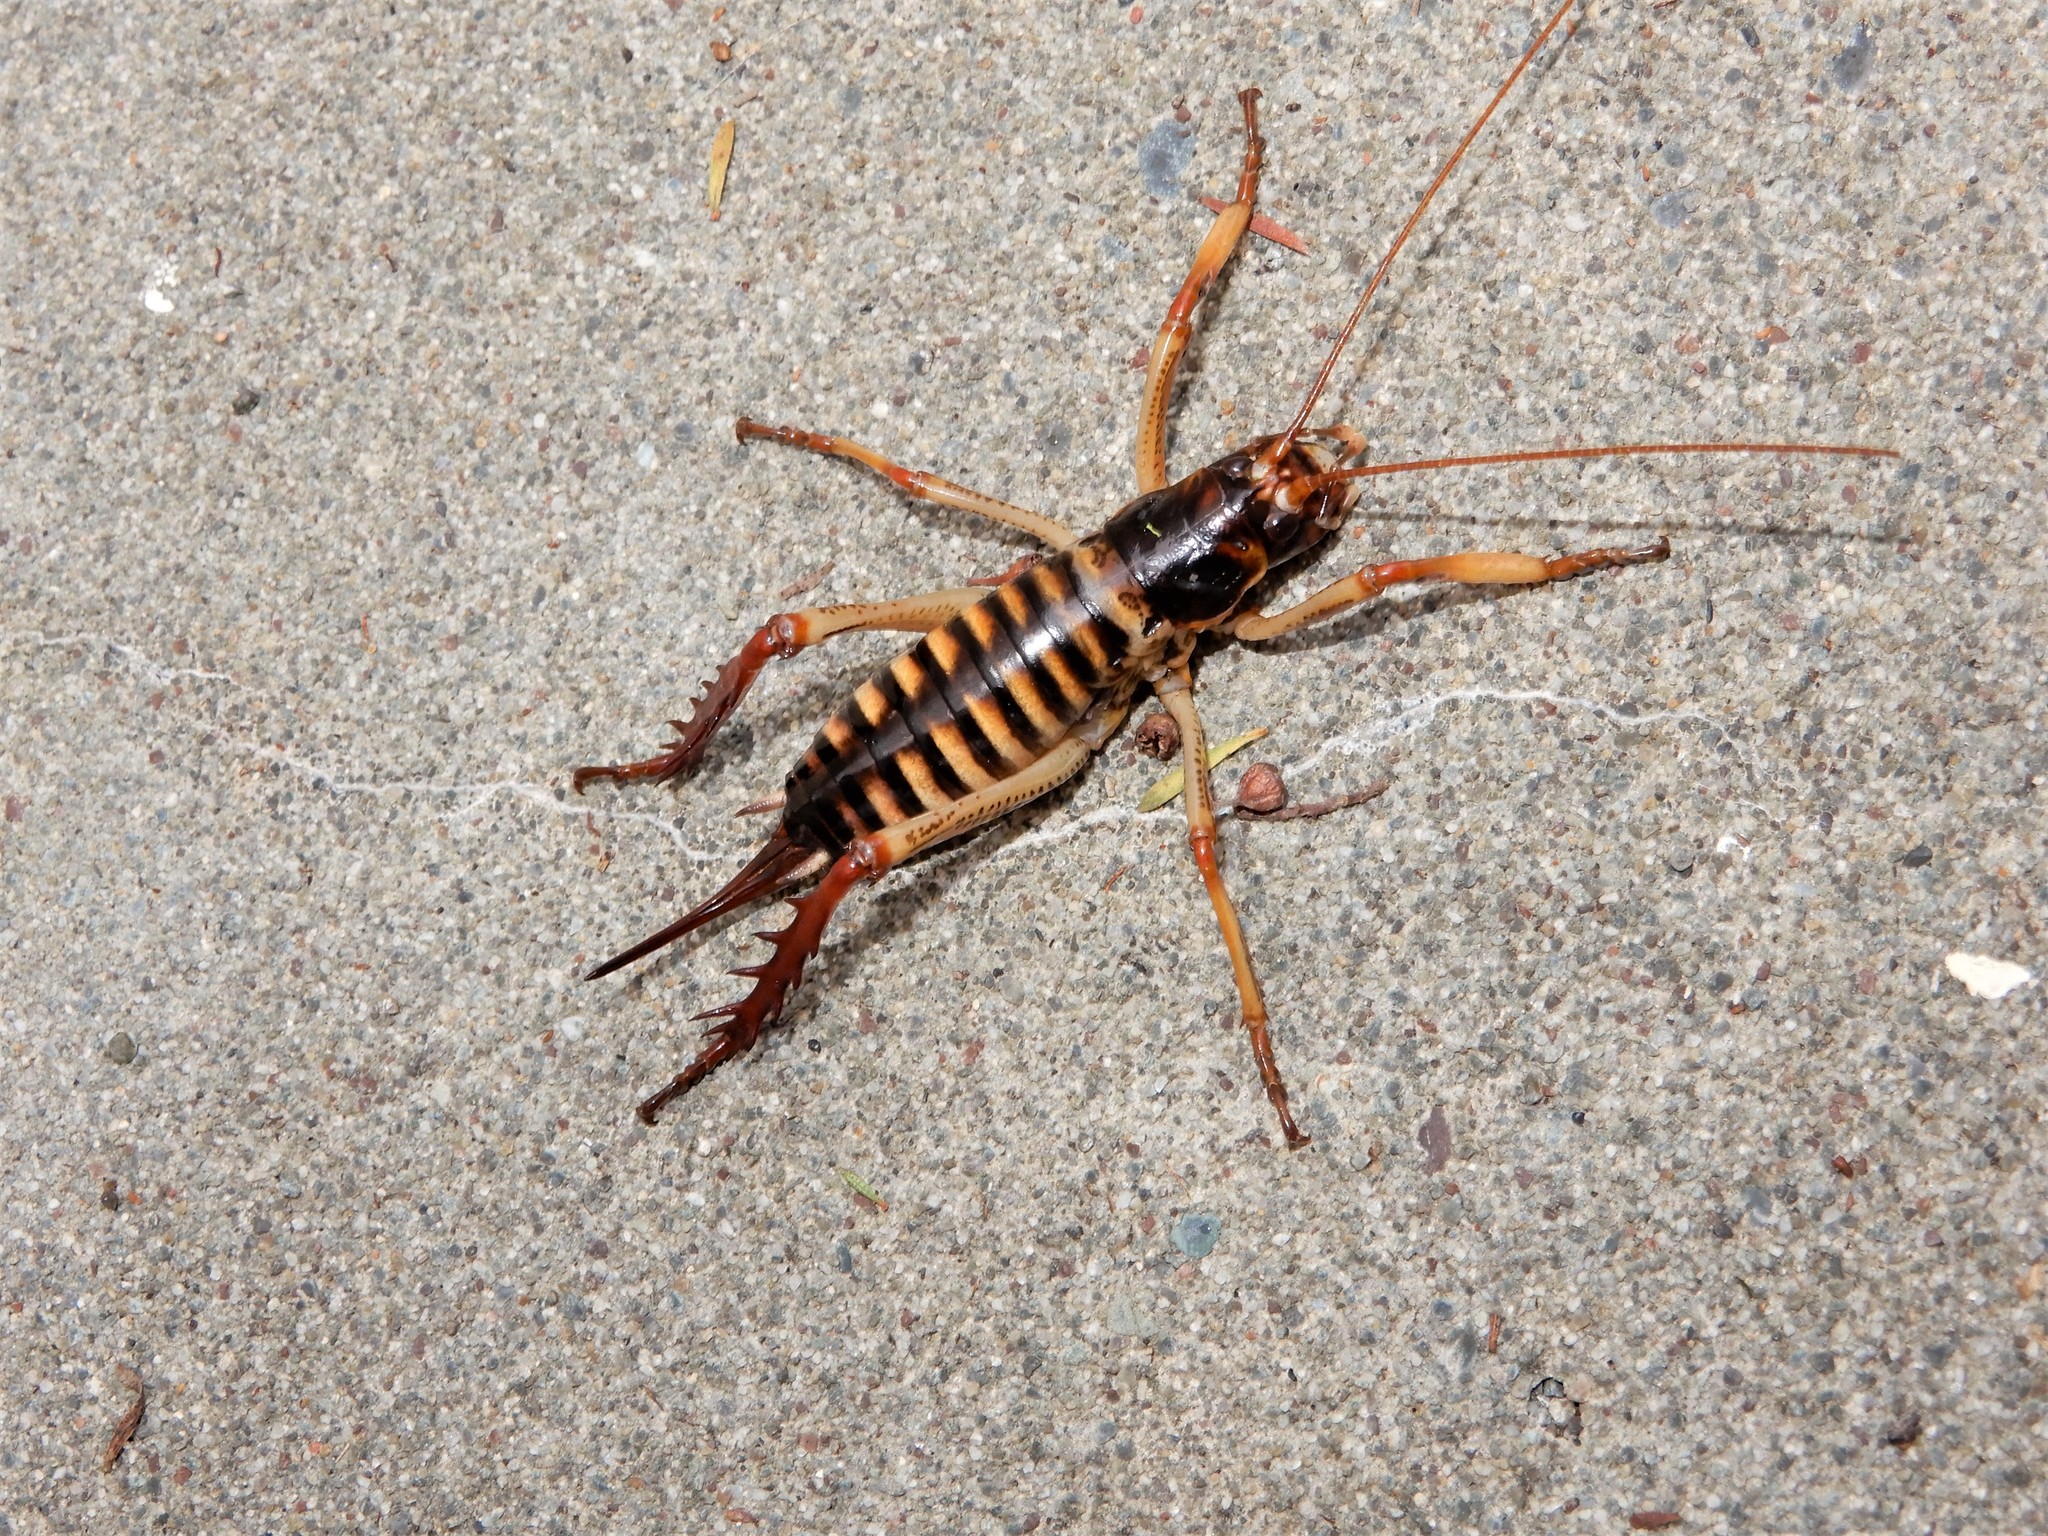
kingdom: Animalia
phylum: Arthropoda
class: Insecta
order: Orthoptera
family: Anostostomatidae
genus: Hemideina
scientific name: Hemideina crassidens
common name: Wellington tree weta
